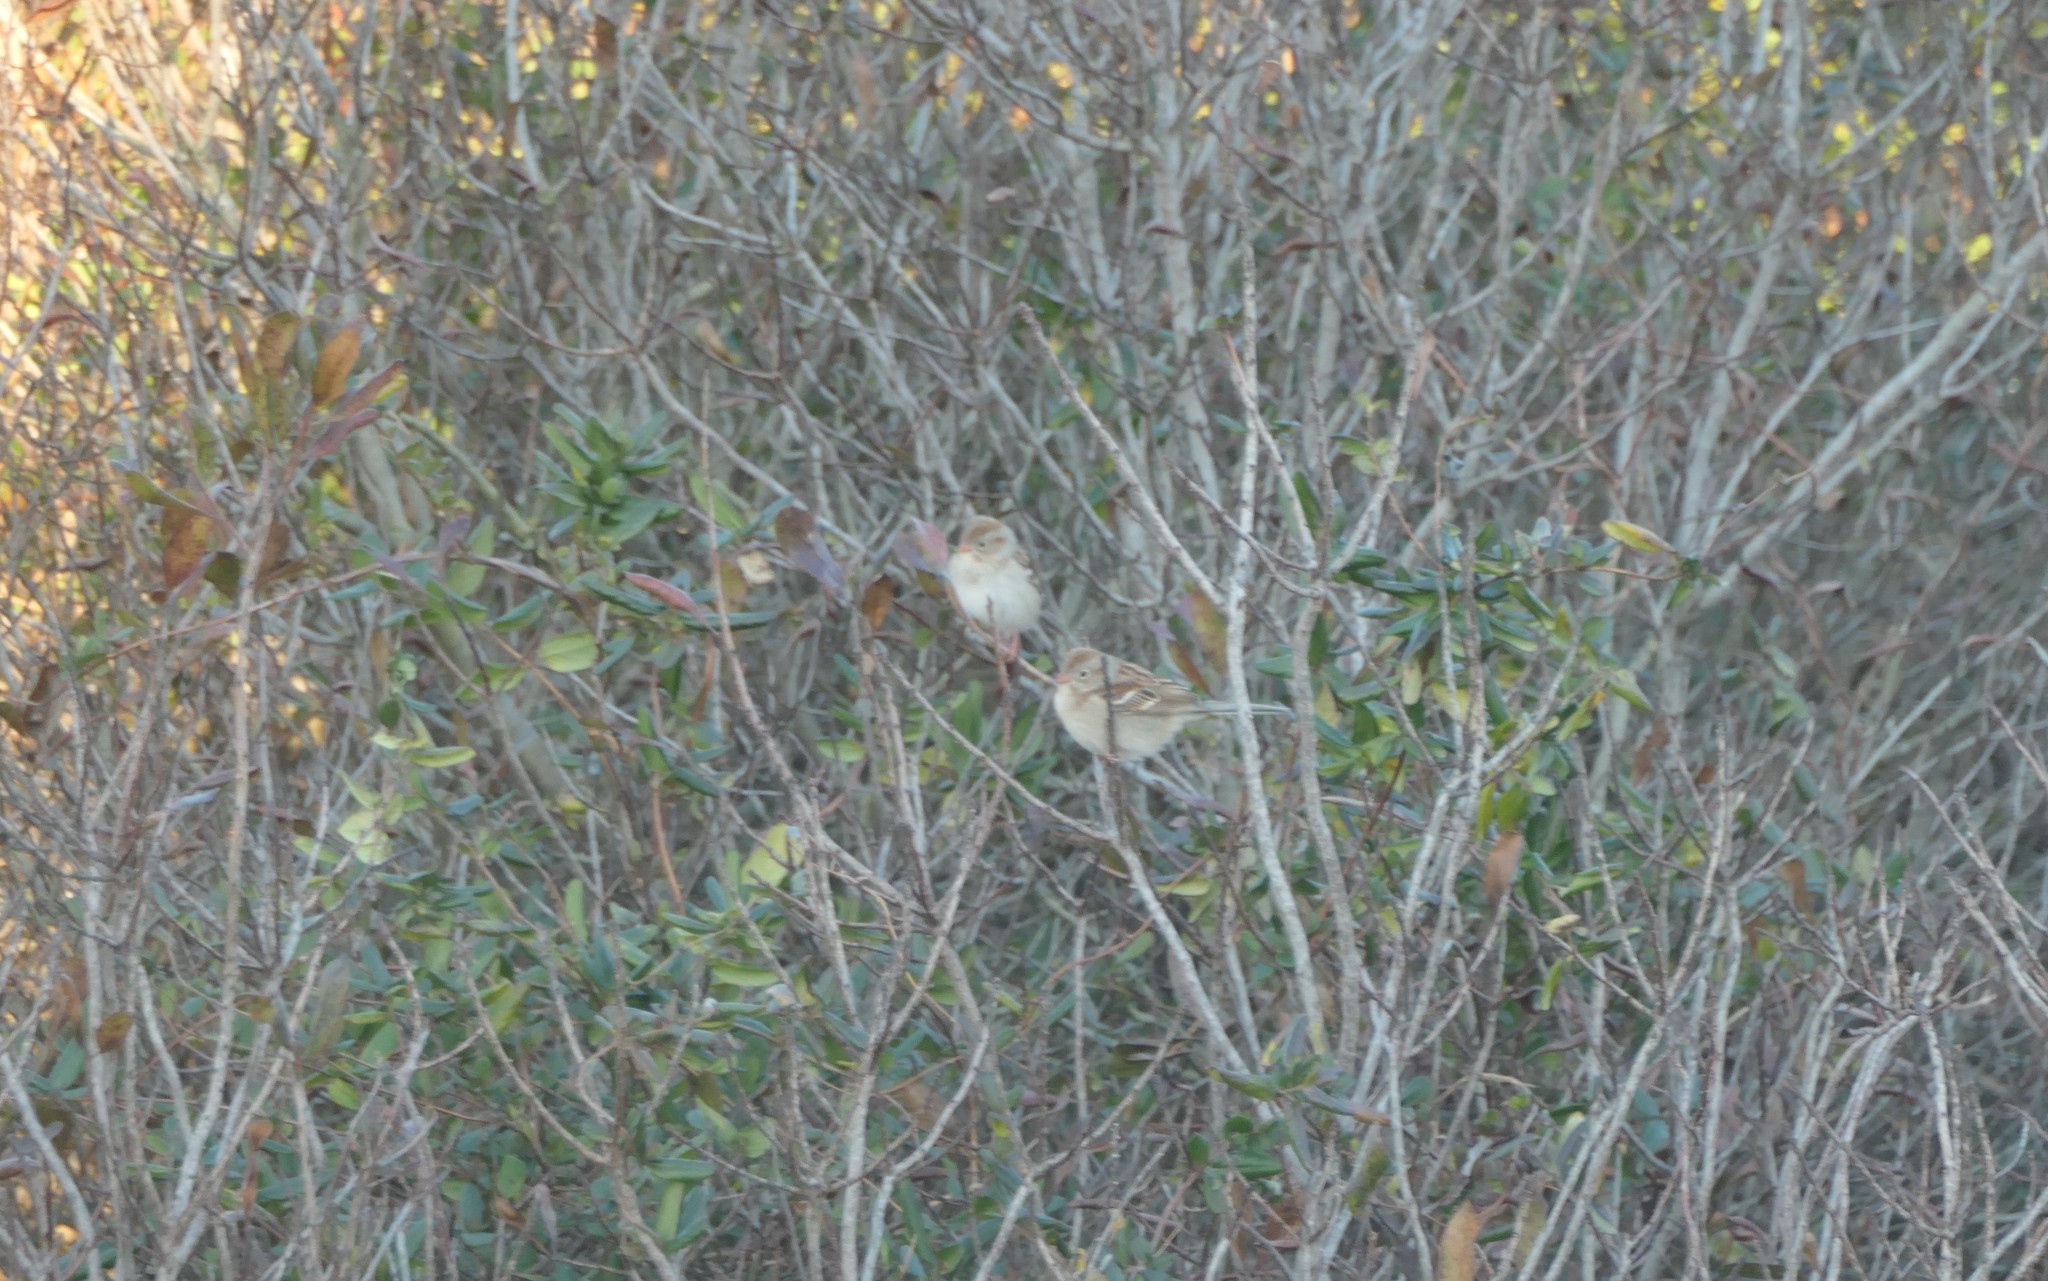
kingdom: Animalia
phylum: Chordata
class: Aves
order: Passeriformes
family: Passerellidae
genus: Spizella
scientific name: Spizella pusilla
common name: Field sparrow
